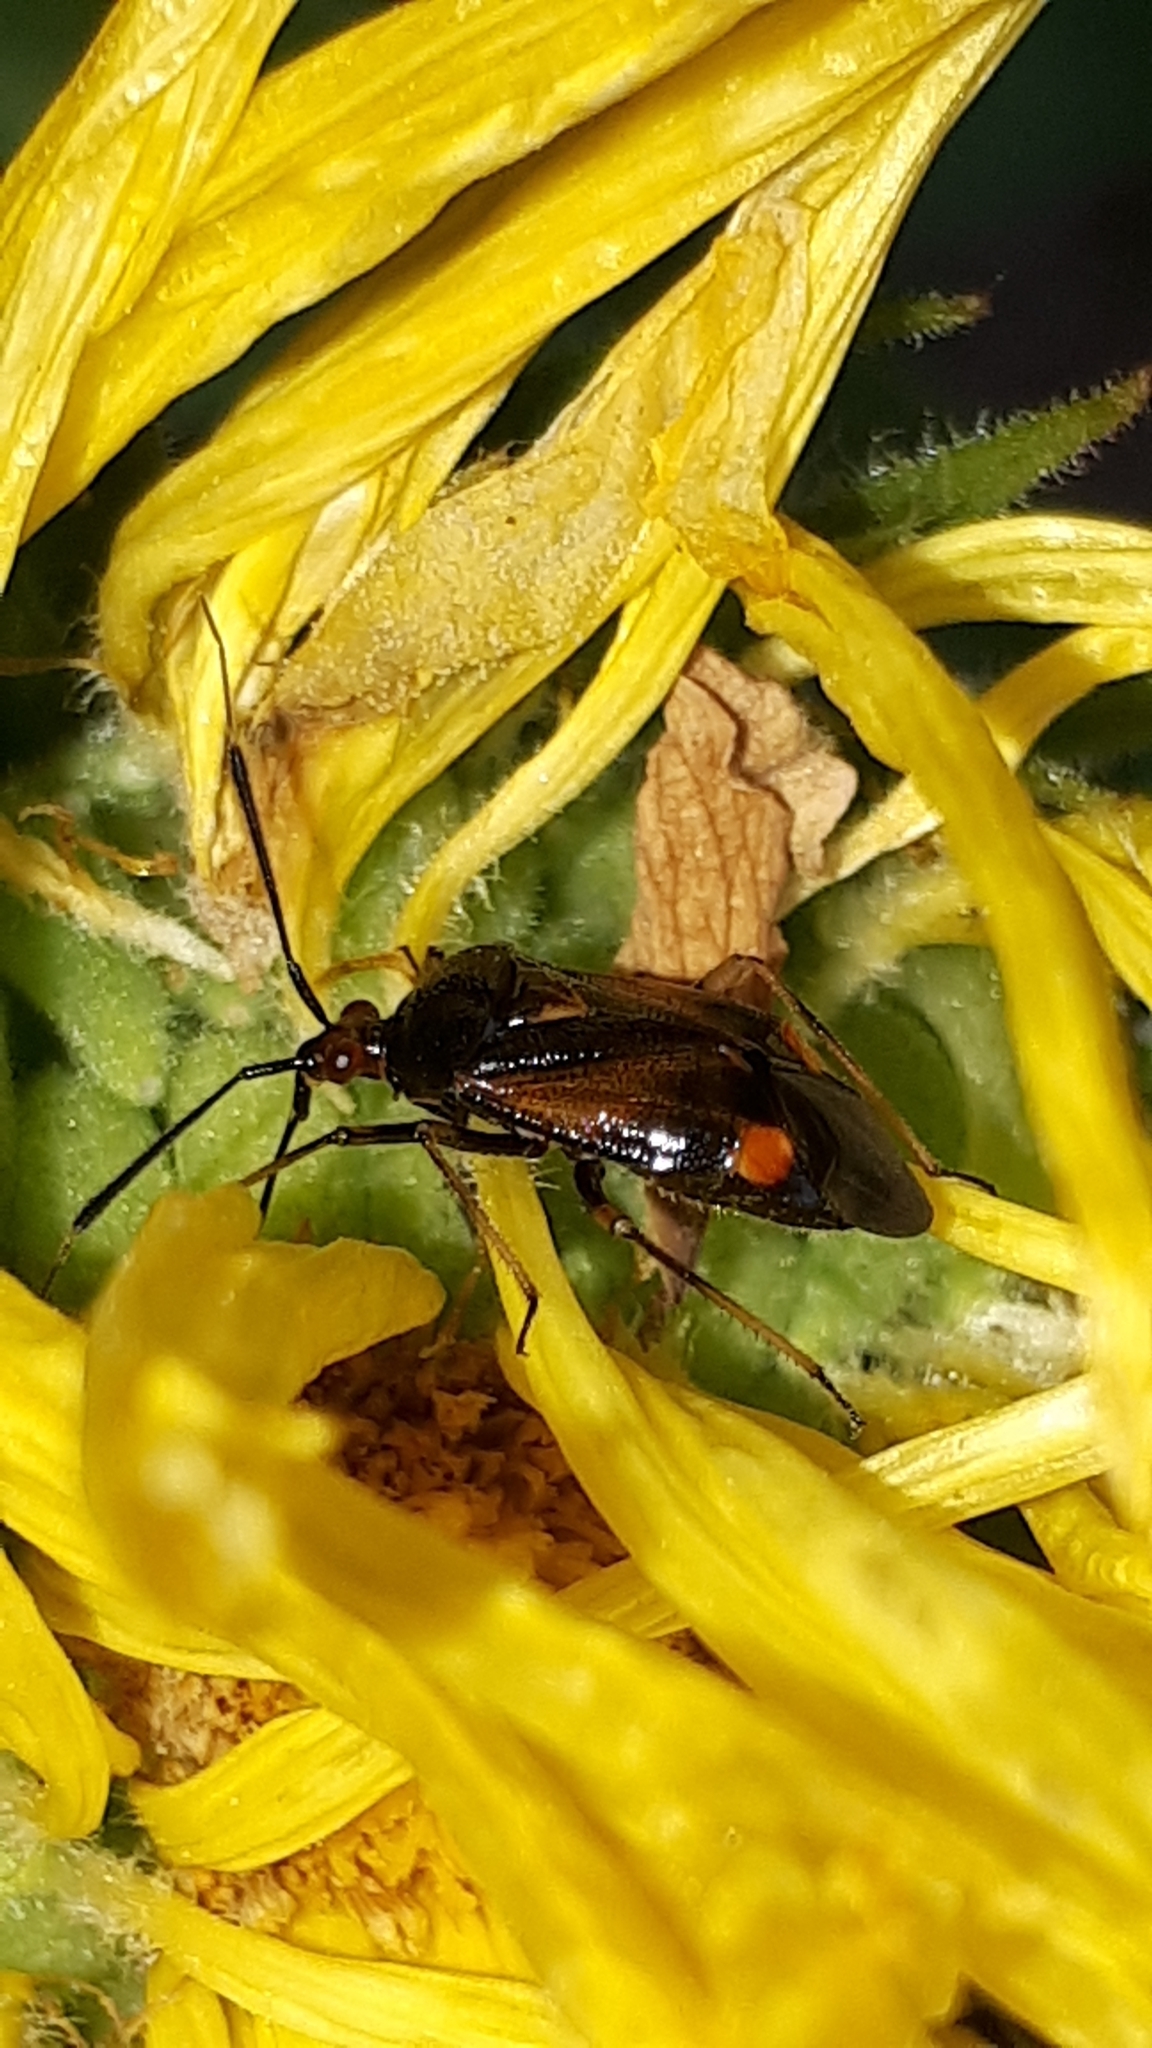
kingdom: Animalia
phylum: Arthropoda
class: Insecta
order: Hemiptera
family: Miridae
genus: Deraeocoris
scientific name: Deraeocoris ruber
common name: Plant bug
